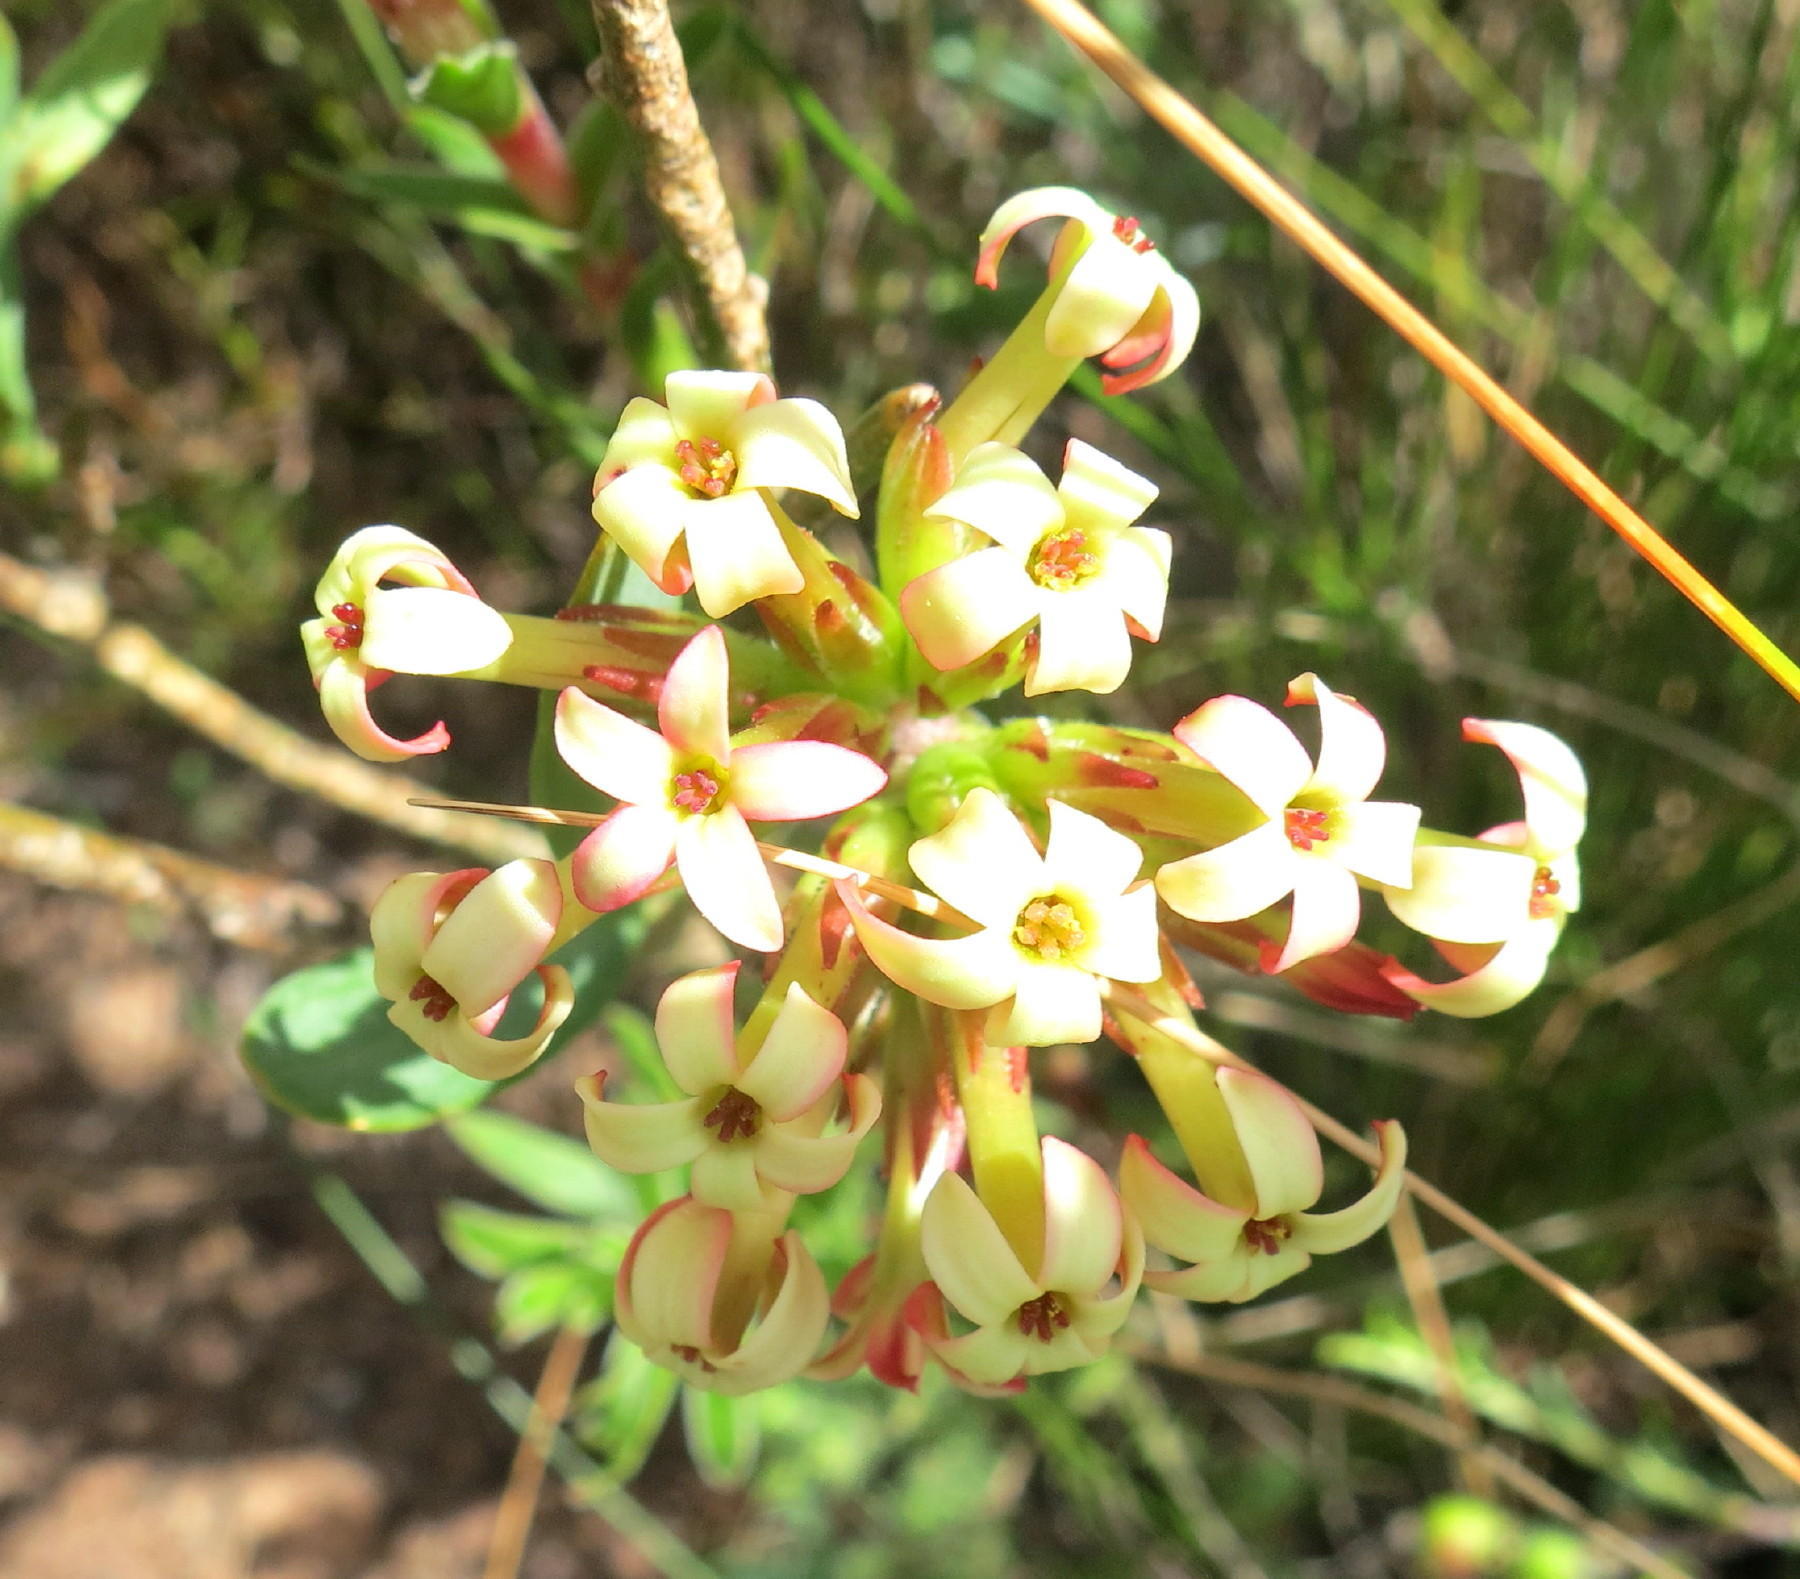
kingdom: Plantae
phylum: Tracheophyta
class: Magnoliopsida
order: Saxifragales
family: Crassulaceae
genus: Crassula
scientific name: Crassula fascicularis
